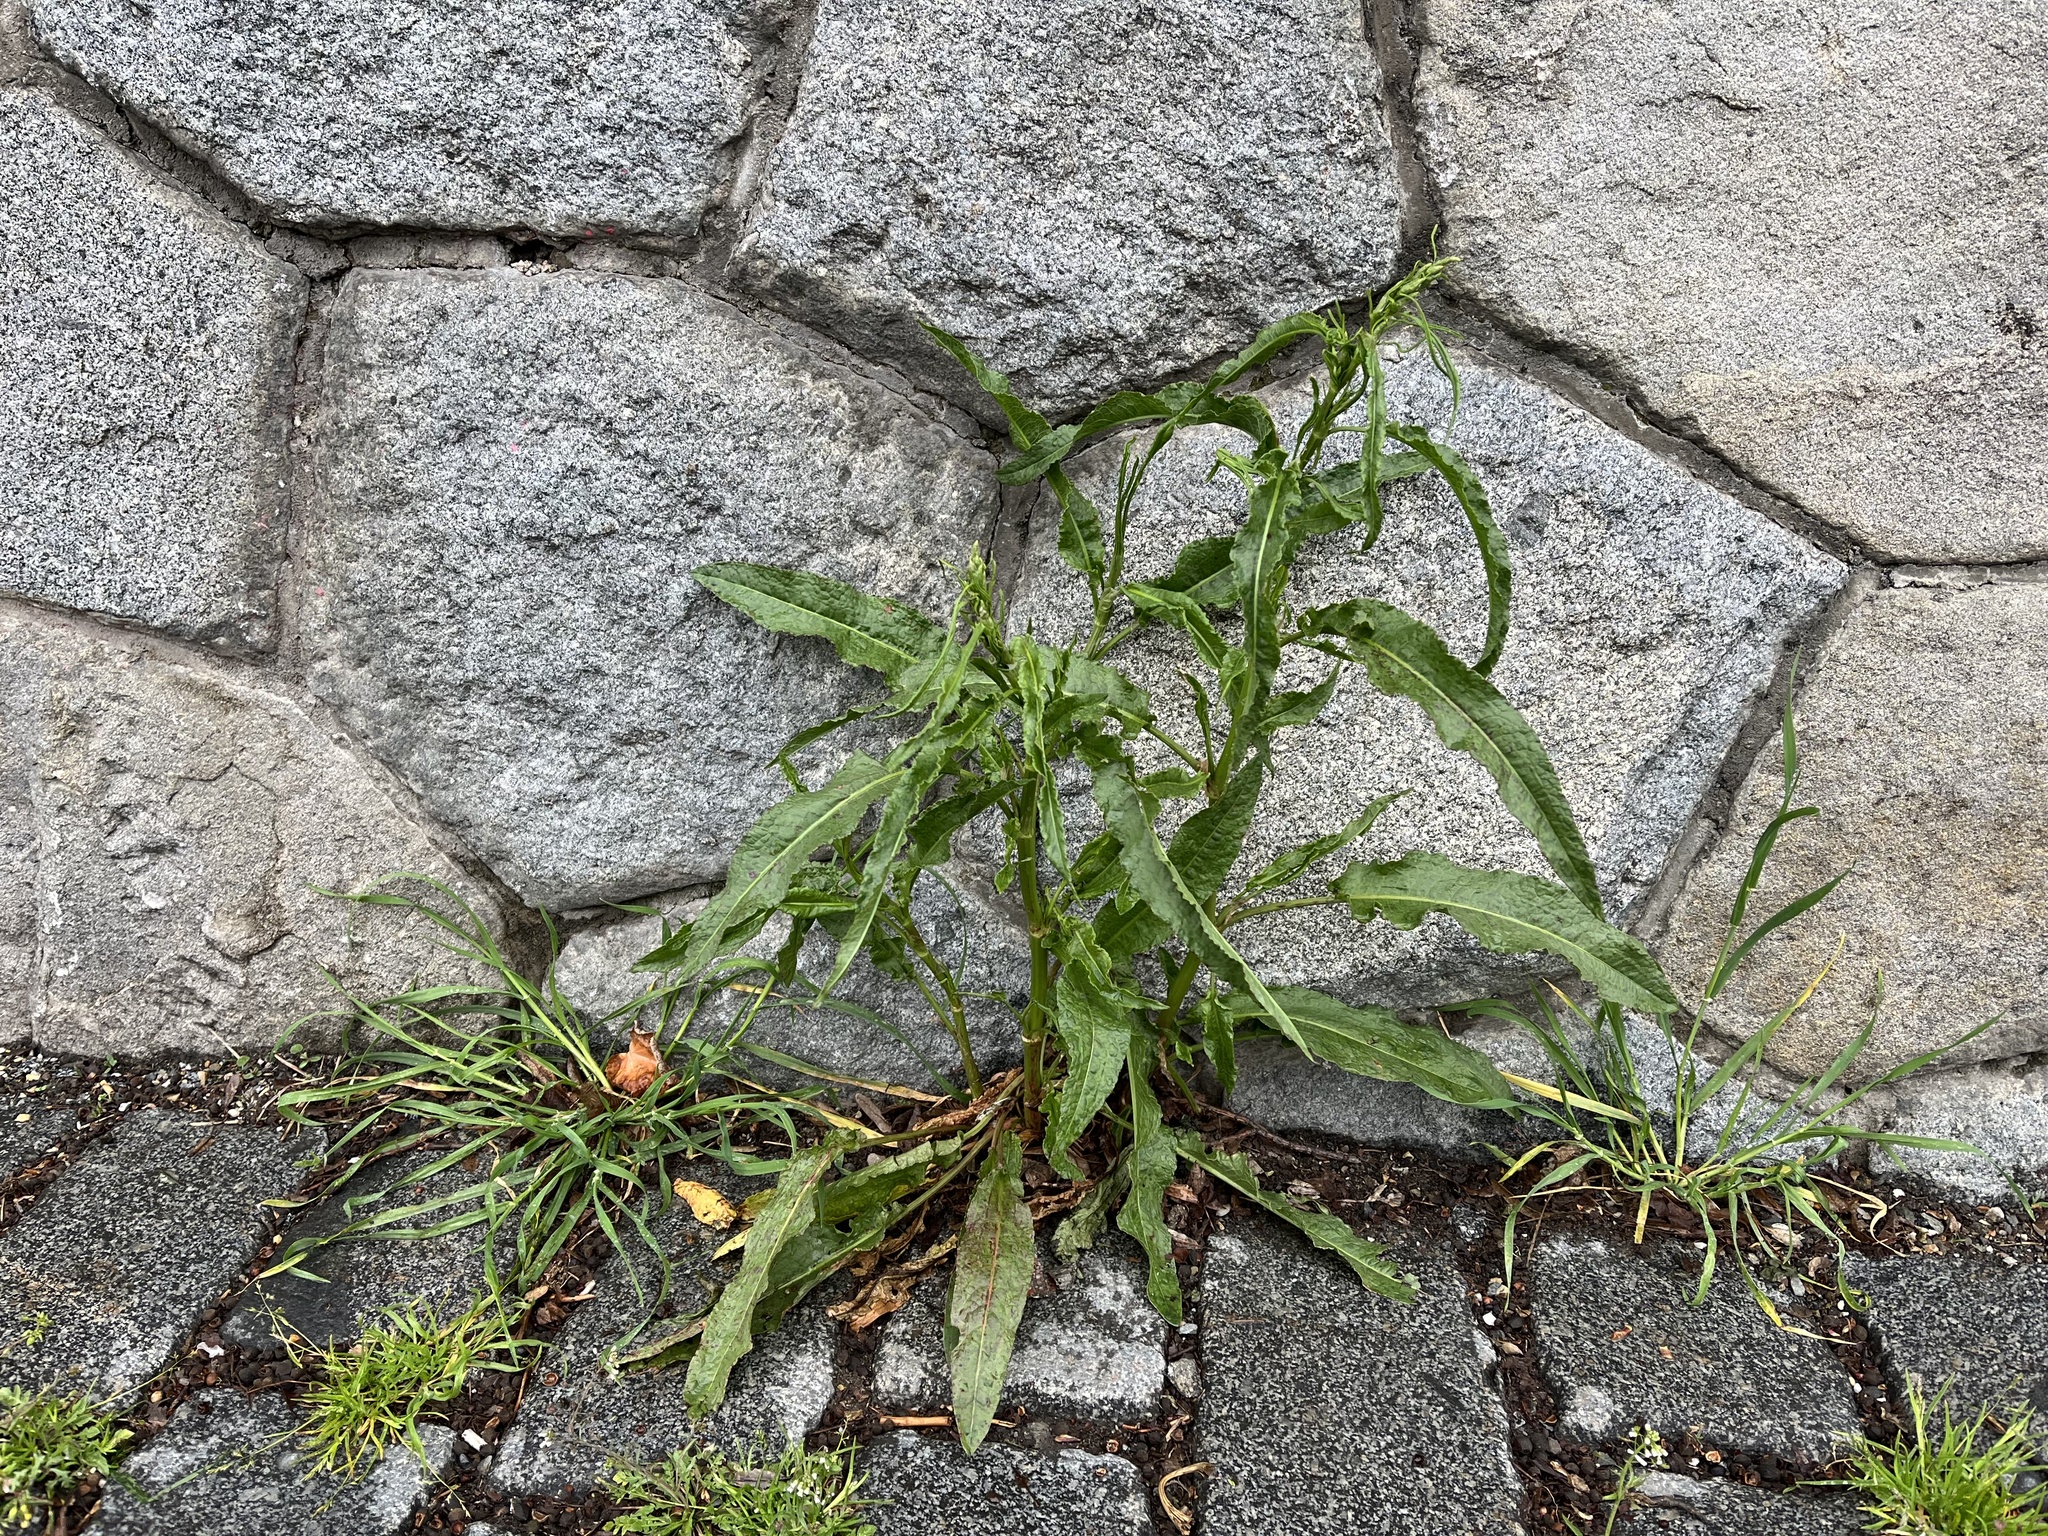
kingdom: Plantae
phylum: Tracheophyta
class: Magnoliopsida
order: Caryophyllales
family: Polygonaceae
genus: Rumex
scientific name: Rumex crispus
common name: Curled dock
